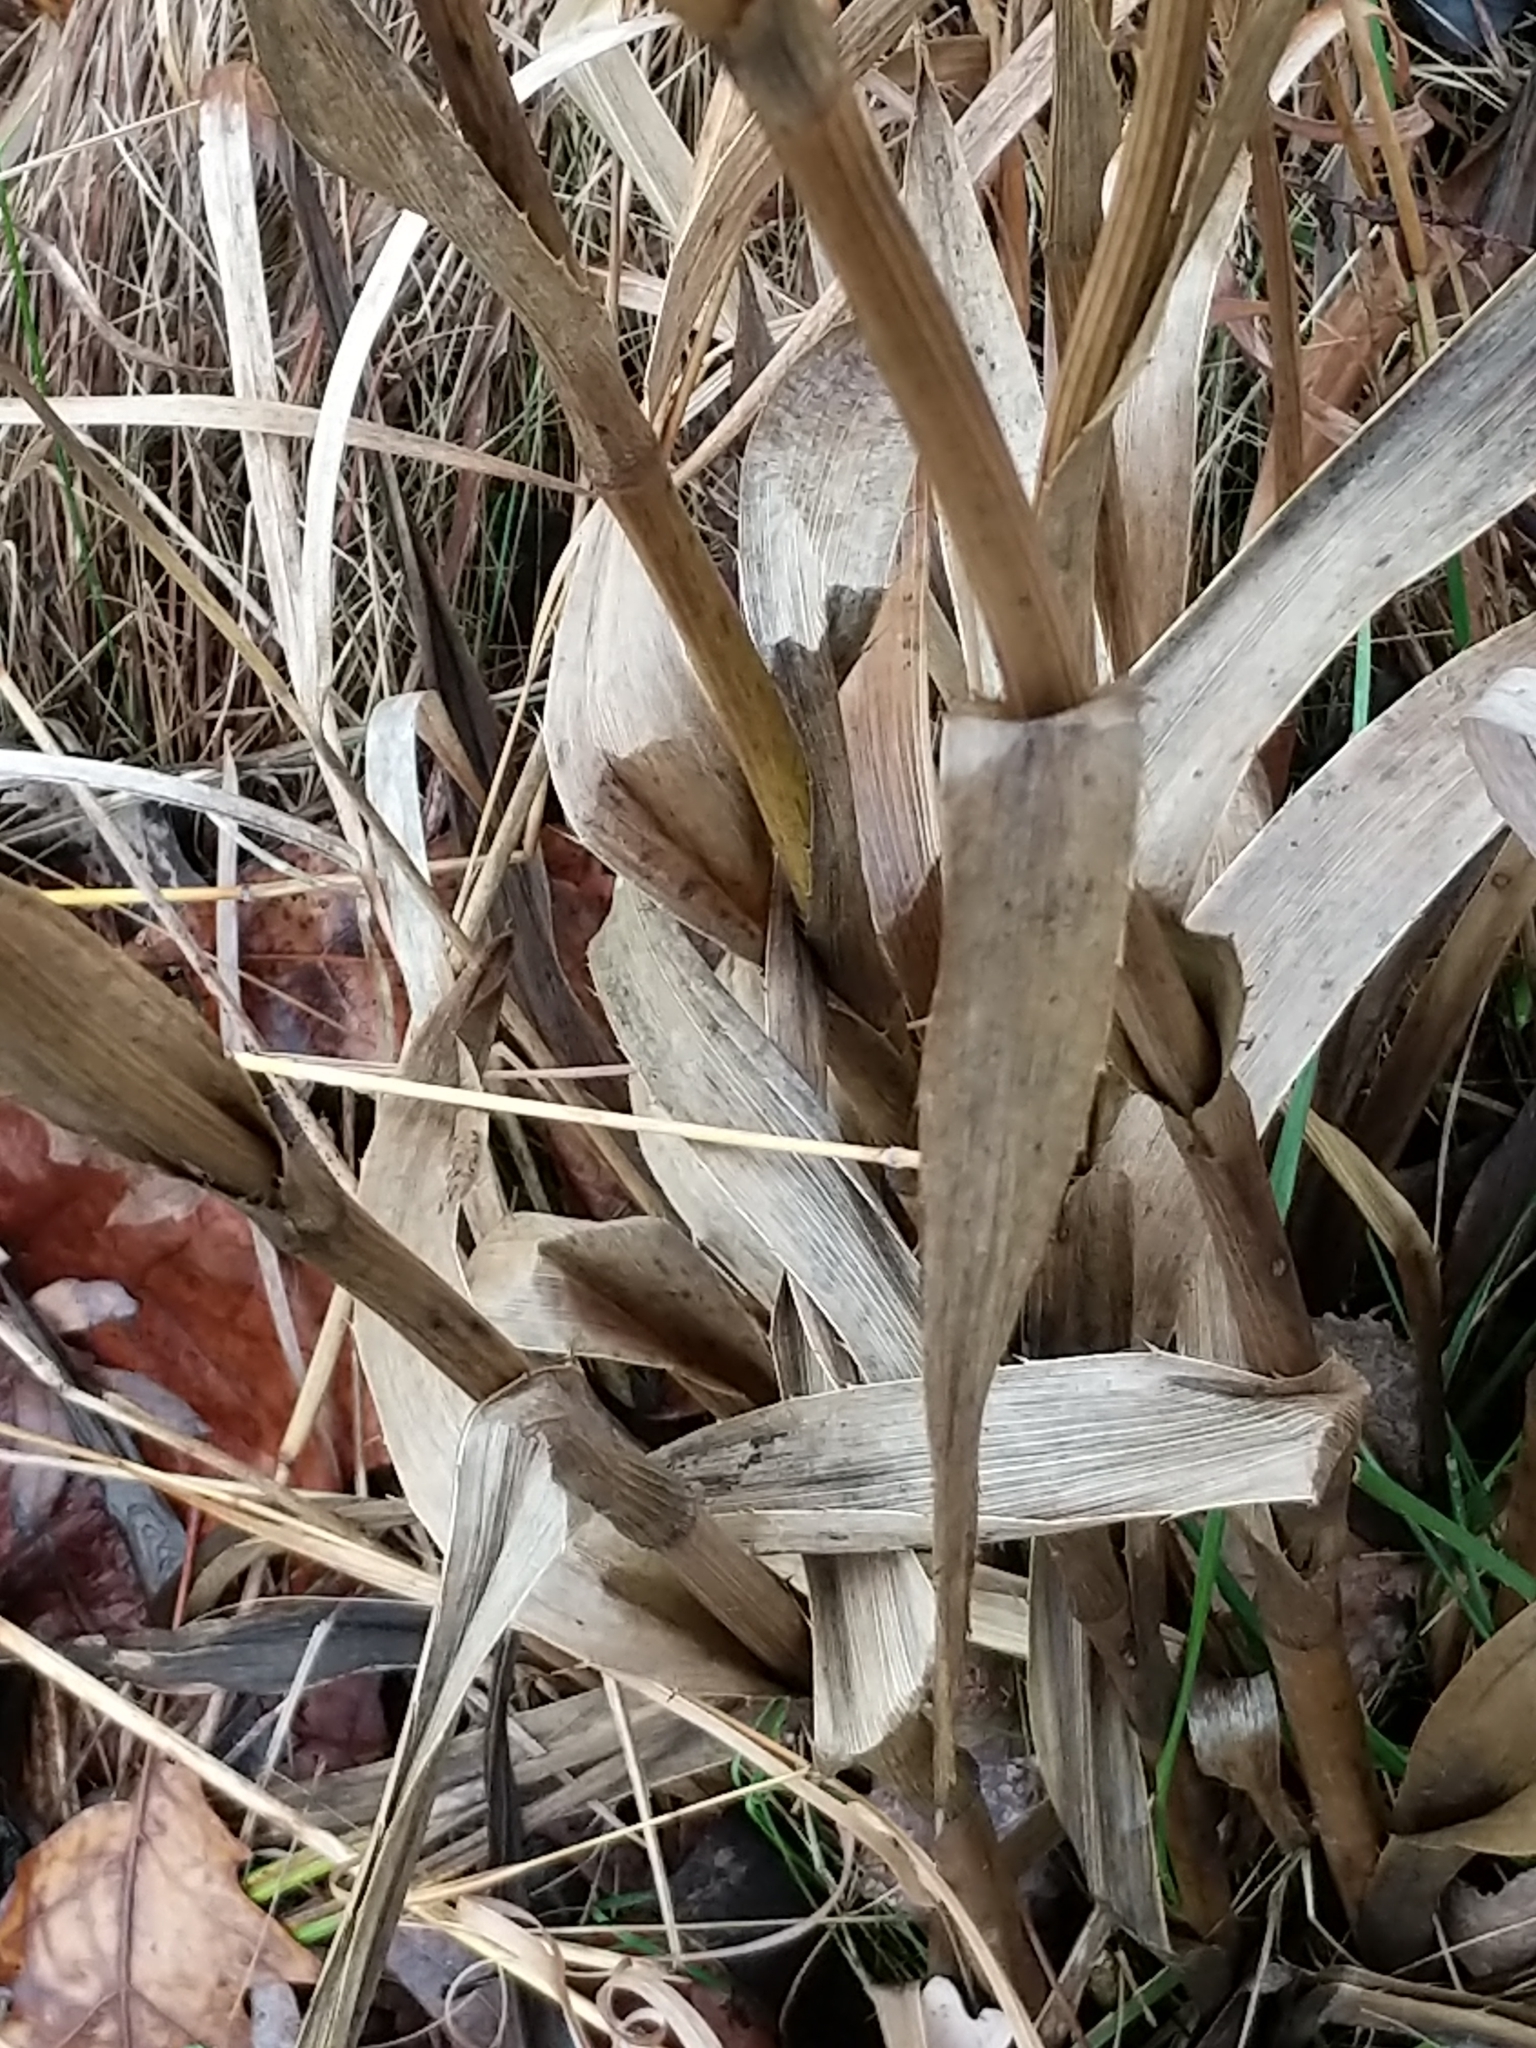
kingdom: Plantae
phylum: Tracheophyta
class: Magnoliopsida
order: Apiales
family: Apiaceae
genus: Eryngium
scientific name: Eryngium yuccifolium
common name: Button eryngo
